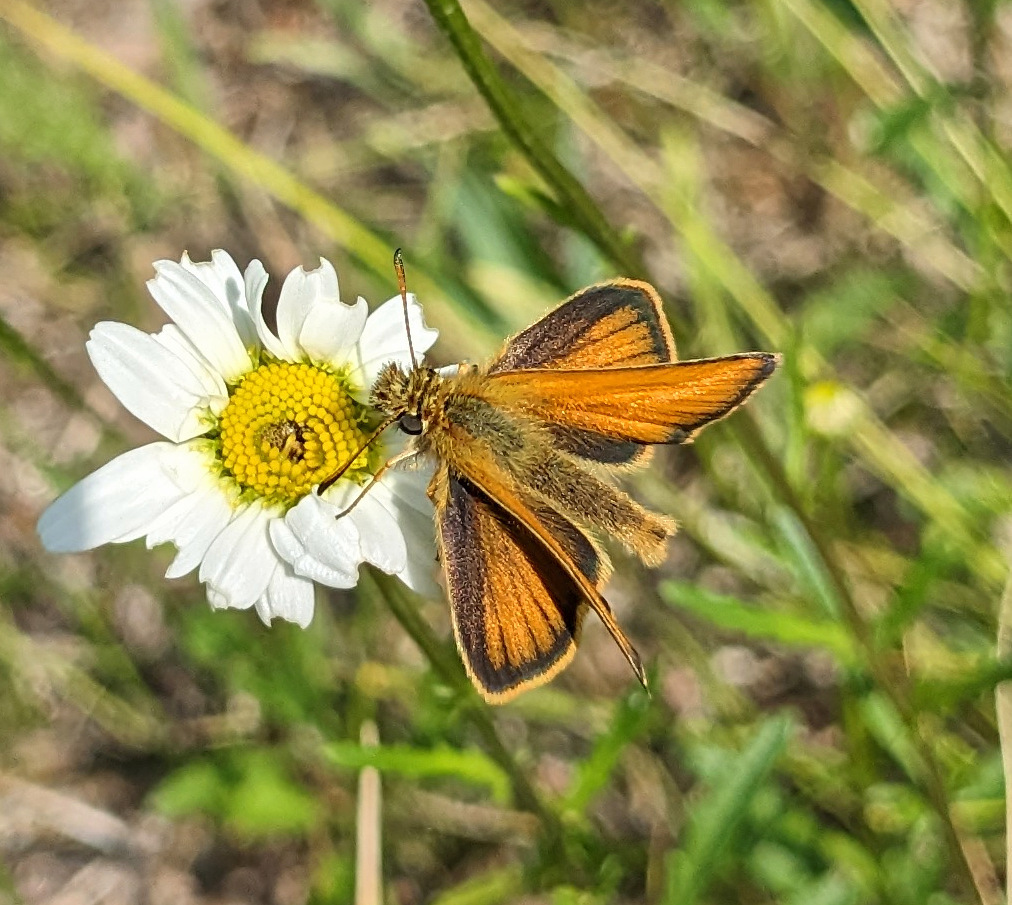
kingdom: Animalia
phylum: Arthropoda
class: Insecta
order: Lepidoptera
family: Hesperiidae
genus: Thymelicus
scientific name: Thymelicus lineola
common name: Essex skipper
